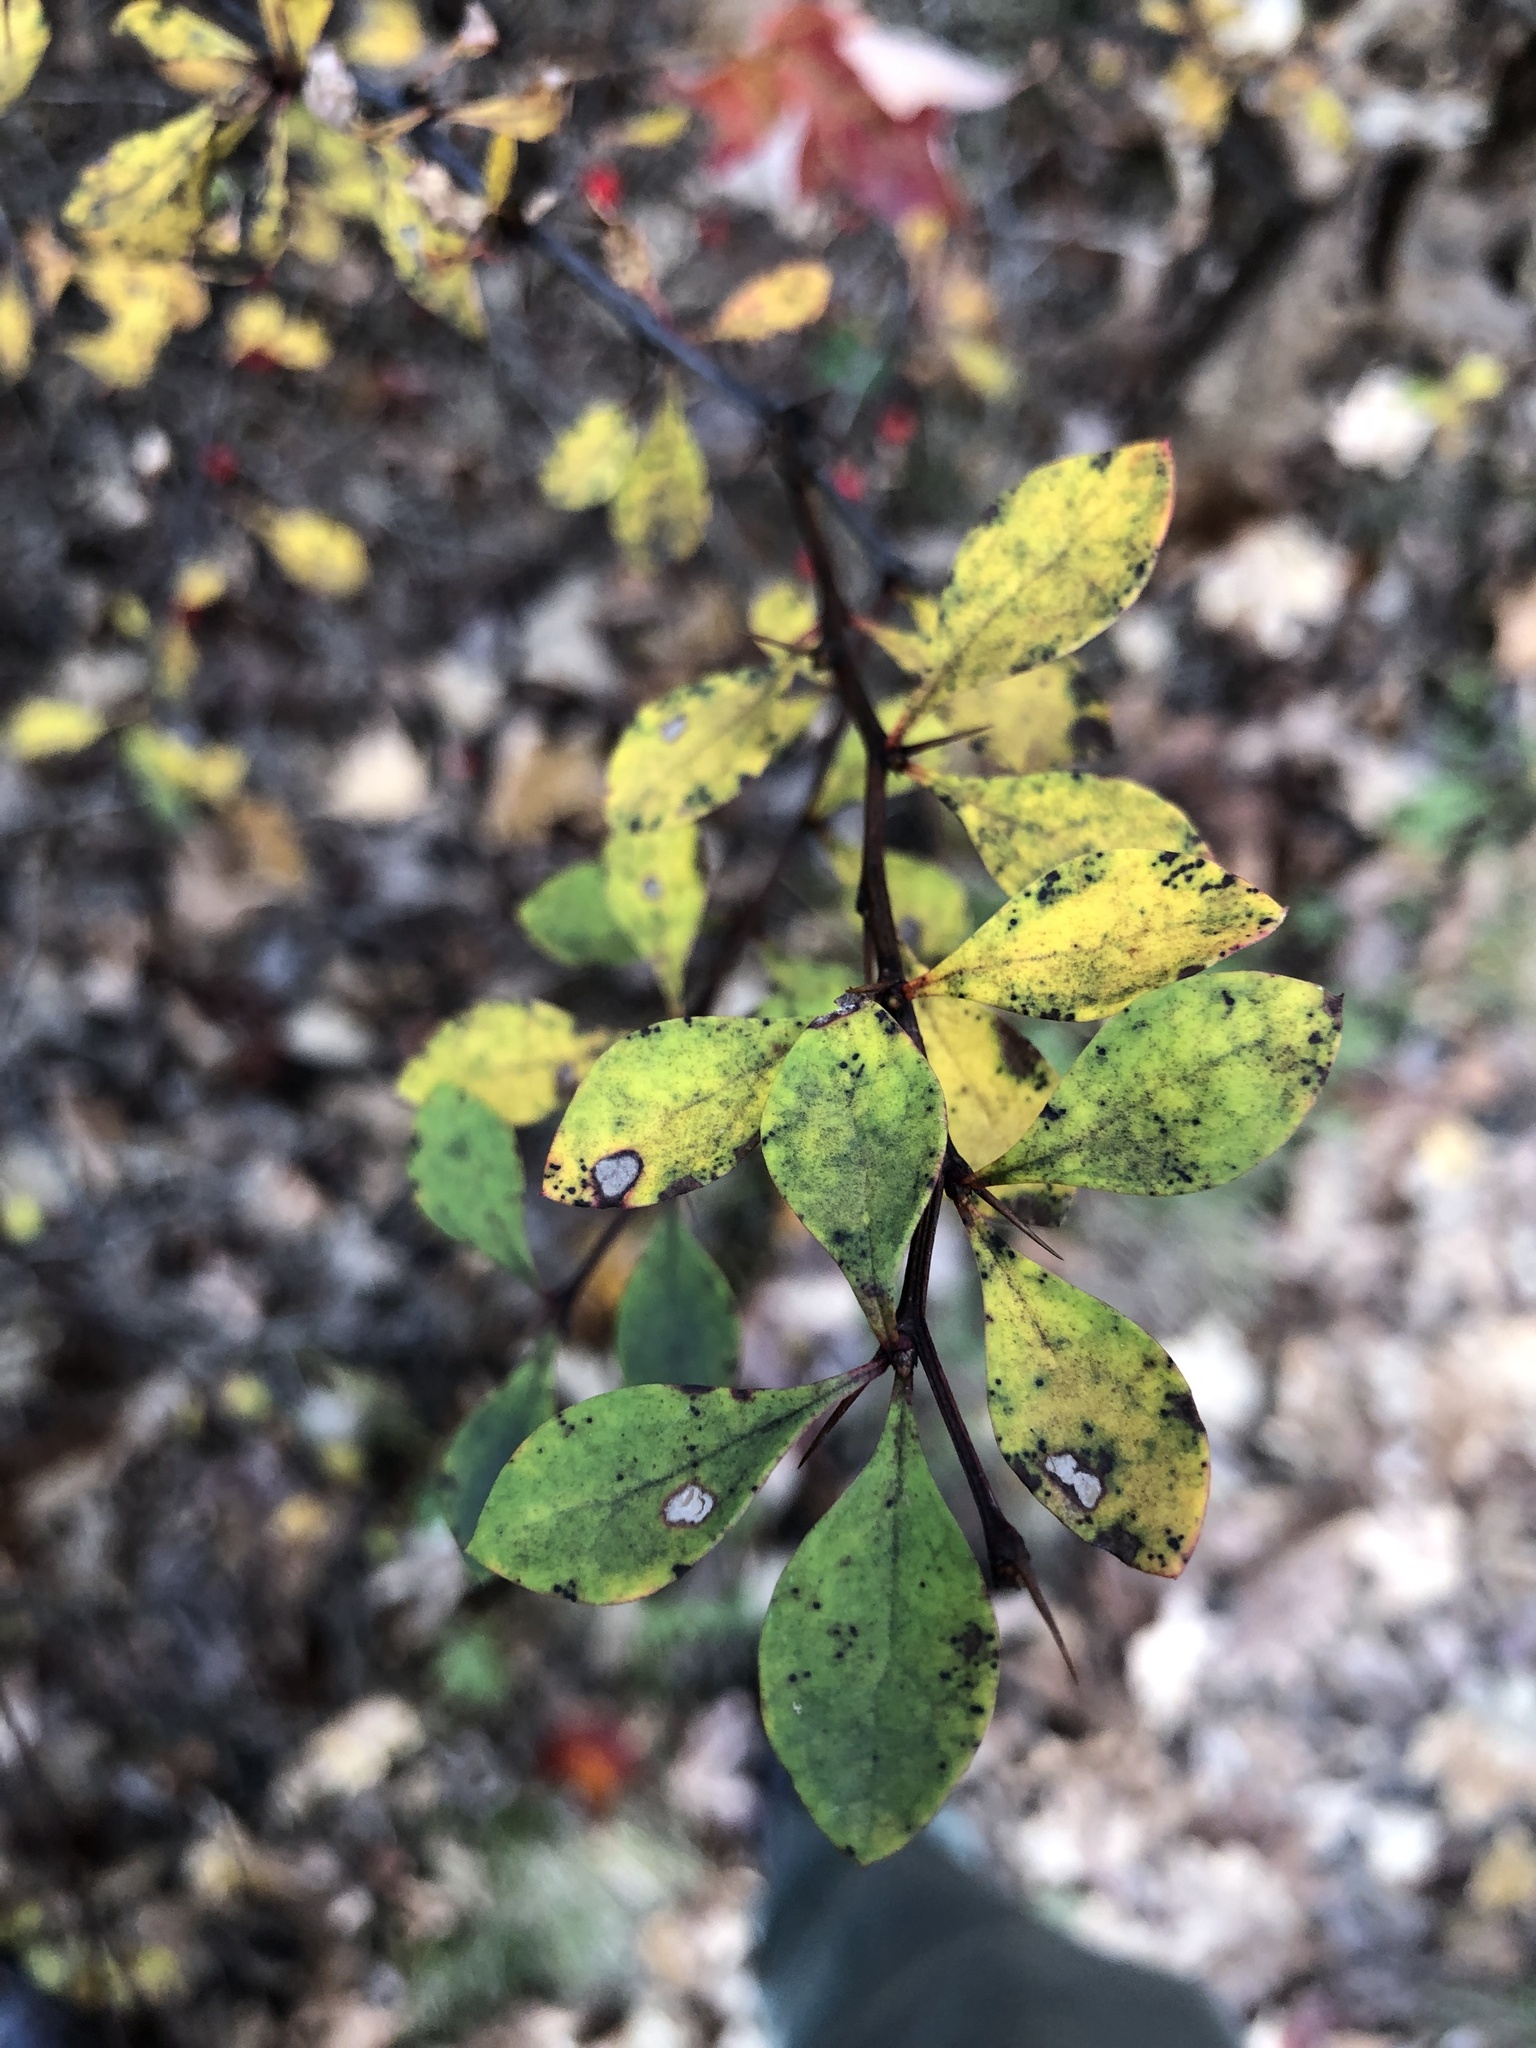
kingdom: Plantae
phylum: Tracheophyta
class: Magnoliopsida
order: Ranunculales
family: Berberidaceae
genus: Berberis
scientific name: Berberis thunbergii
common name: Japanese barberry
